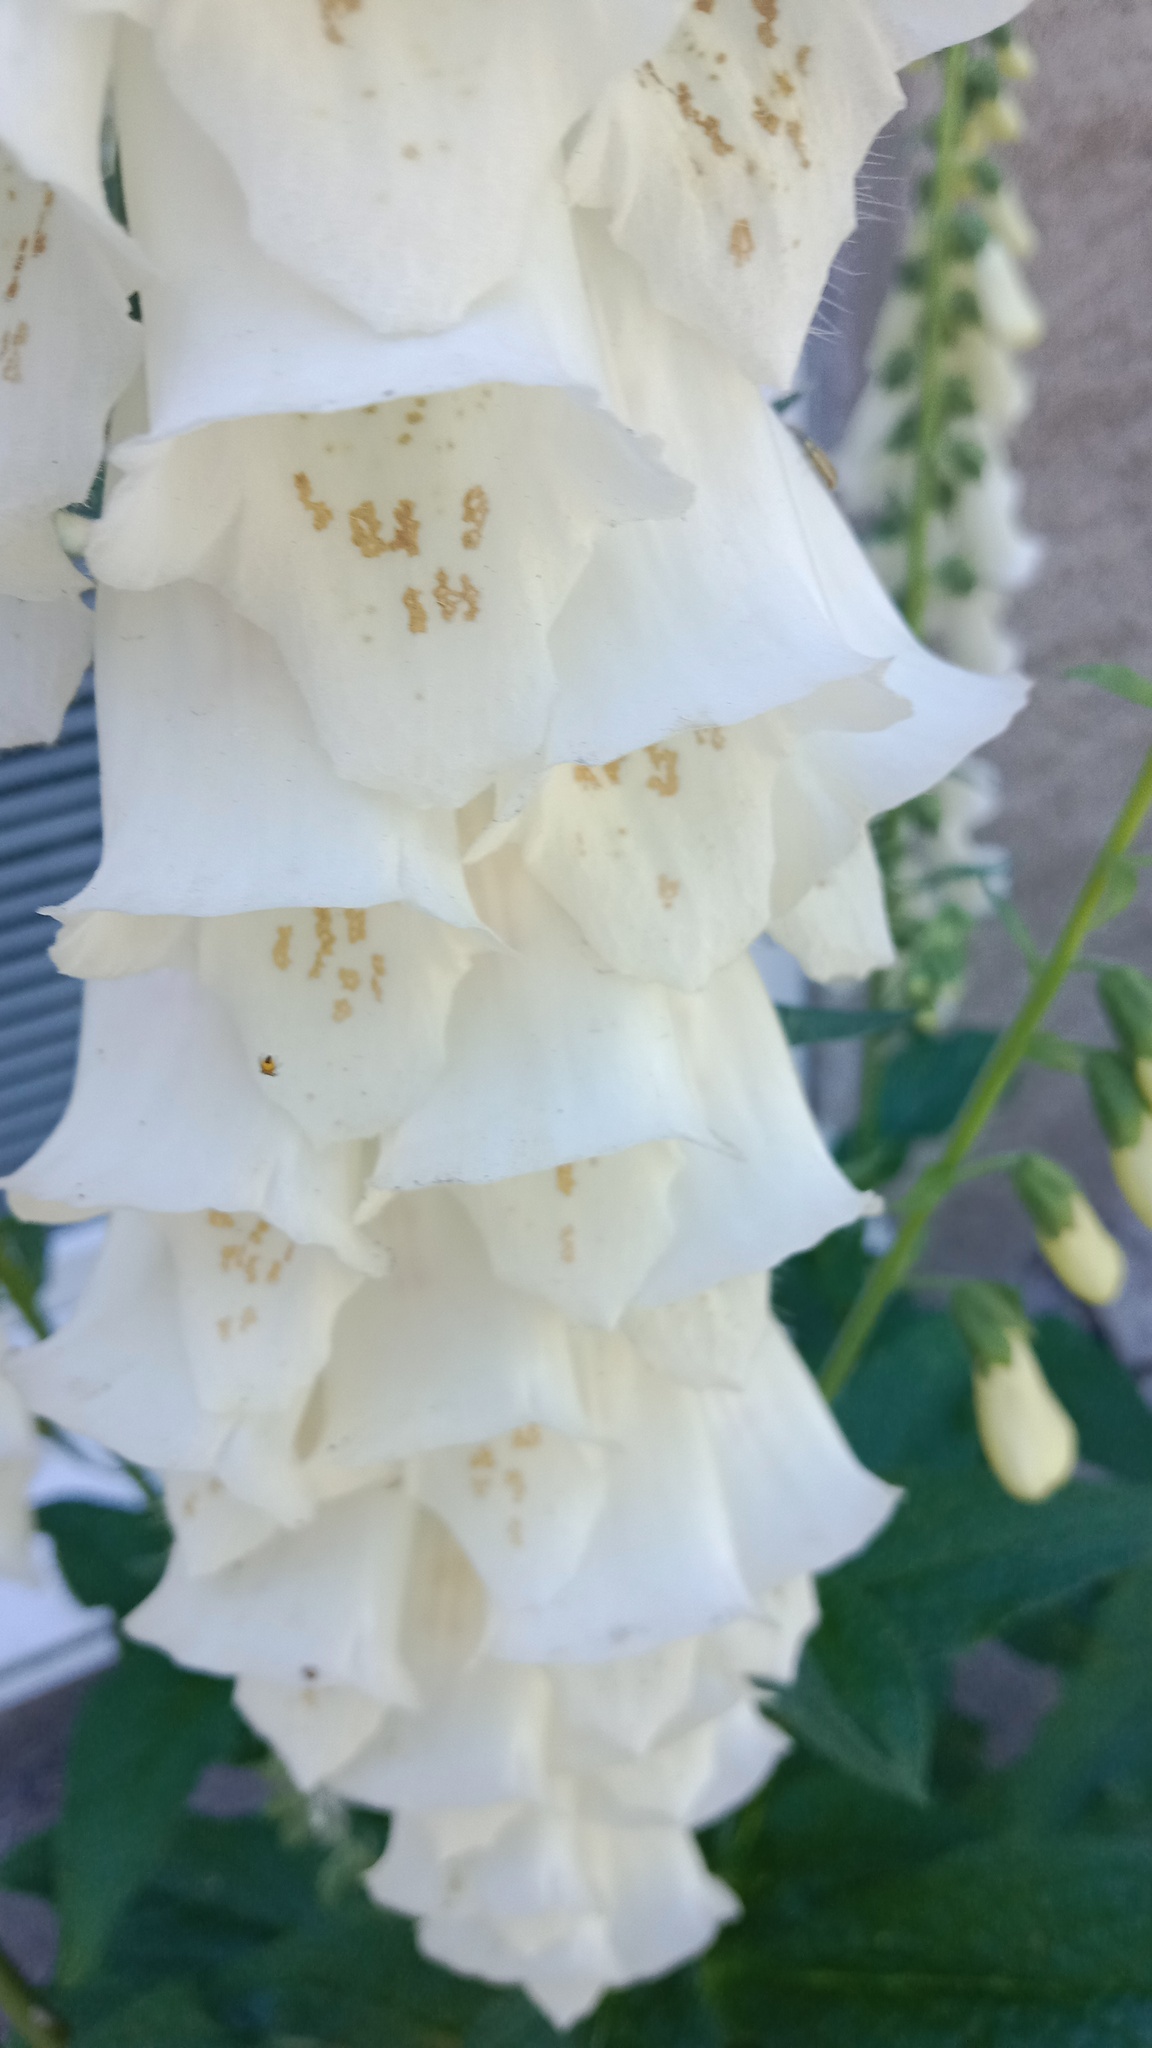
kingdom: Plantae
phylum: Tracheophyta
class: Magnoliopsida
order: Lamiales
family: Plantaginaceae
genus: Digitalis
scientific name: Digitalis purpurea
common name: Foxglove
